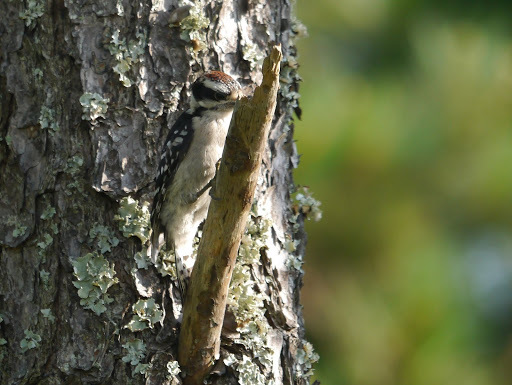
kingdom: Animalia
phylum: Chordata
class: Aves
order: Piciformes
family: Picidae
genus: Dryobates
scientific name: Dryobates pubescens
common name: Downy woodpecker
